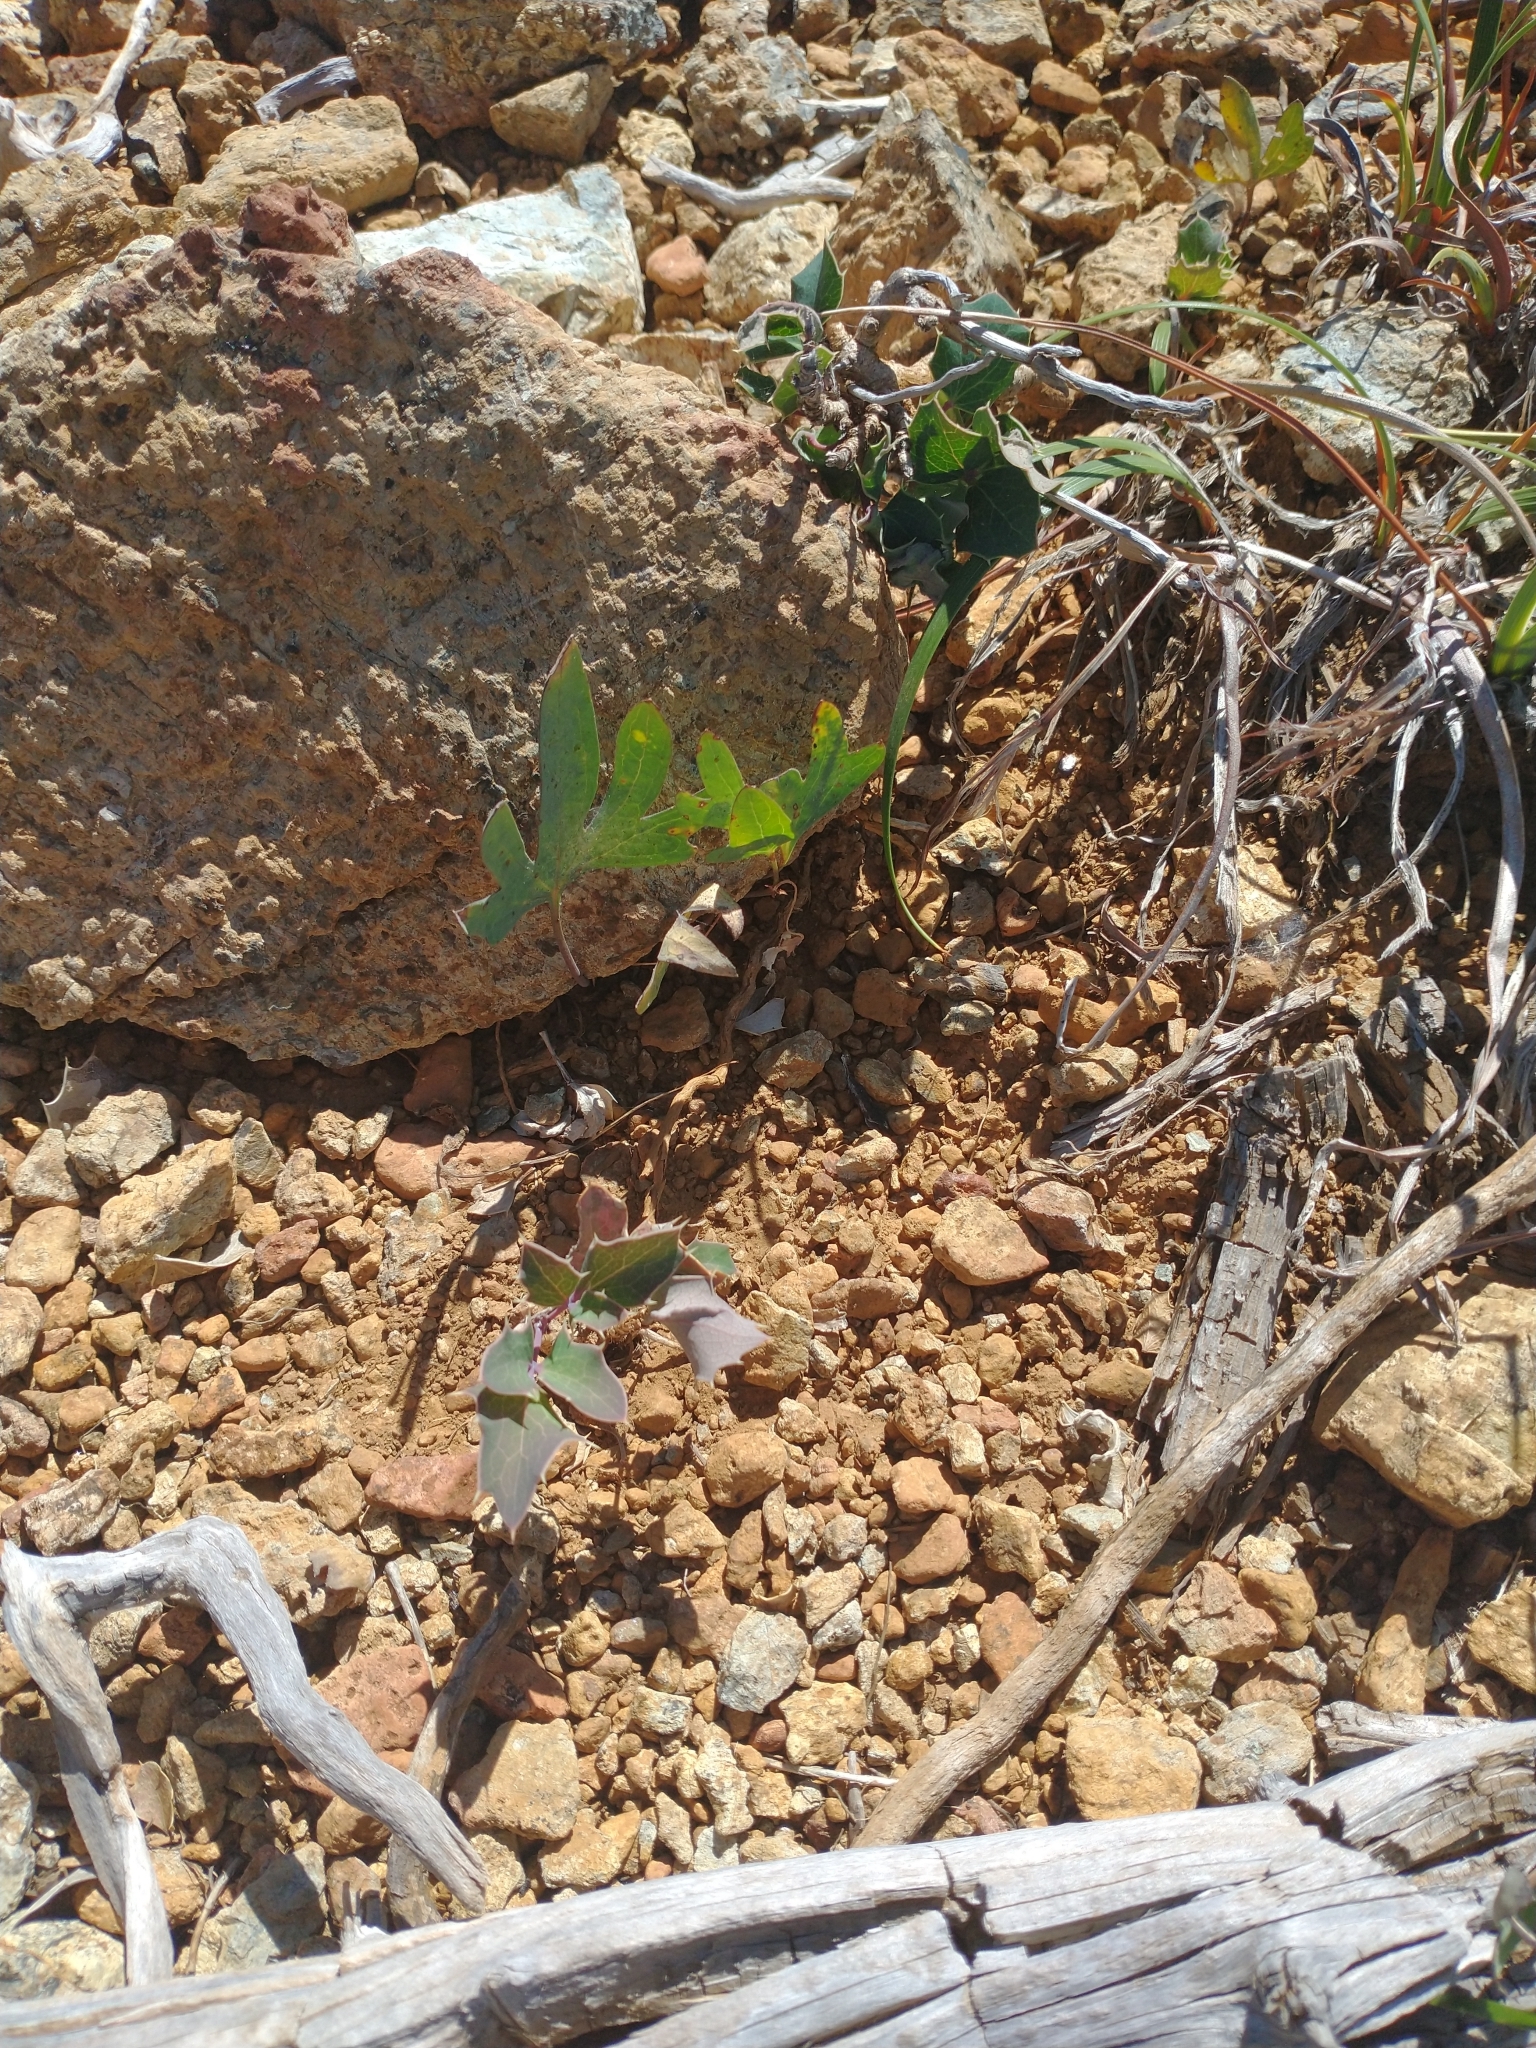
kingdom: Plantae
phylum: Tracheophyta
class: Magnoliopsida
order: Ranunculales
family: Berberidaceae
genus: Mahonia
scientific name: Mahonia repens
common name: Creeping oregon-grape
